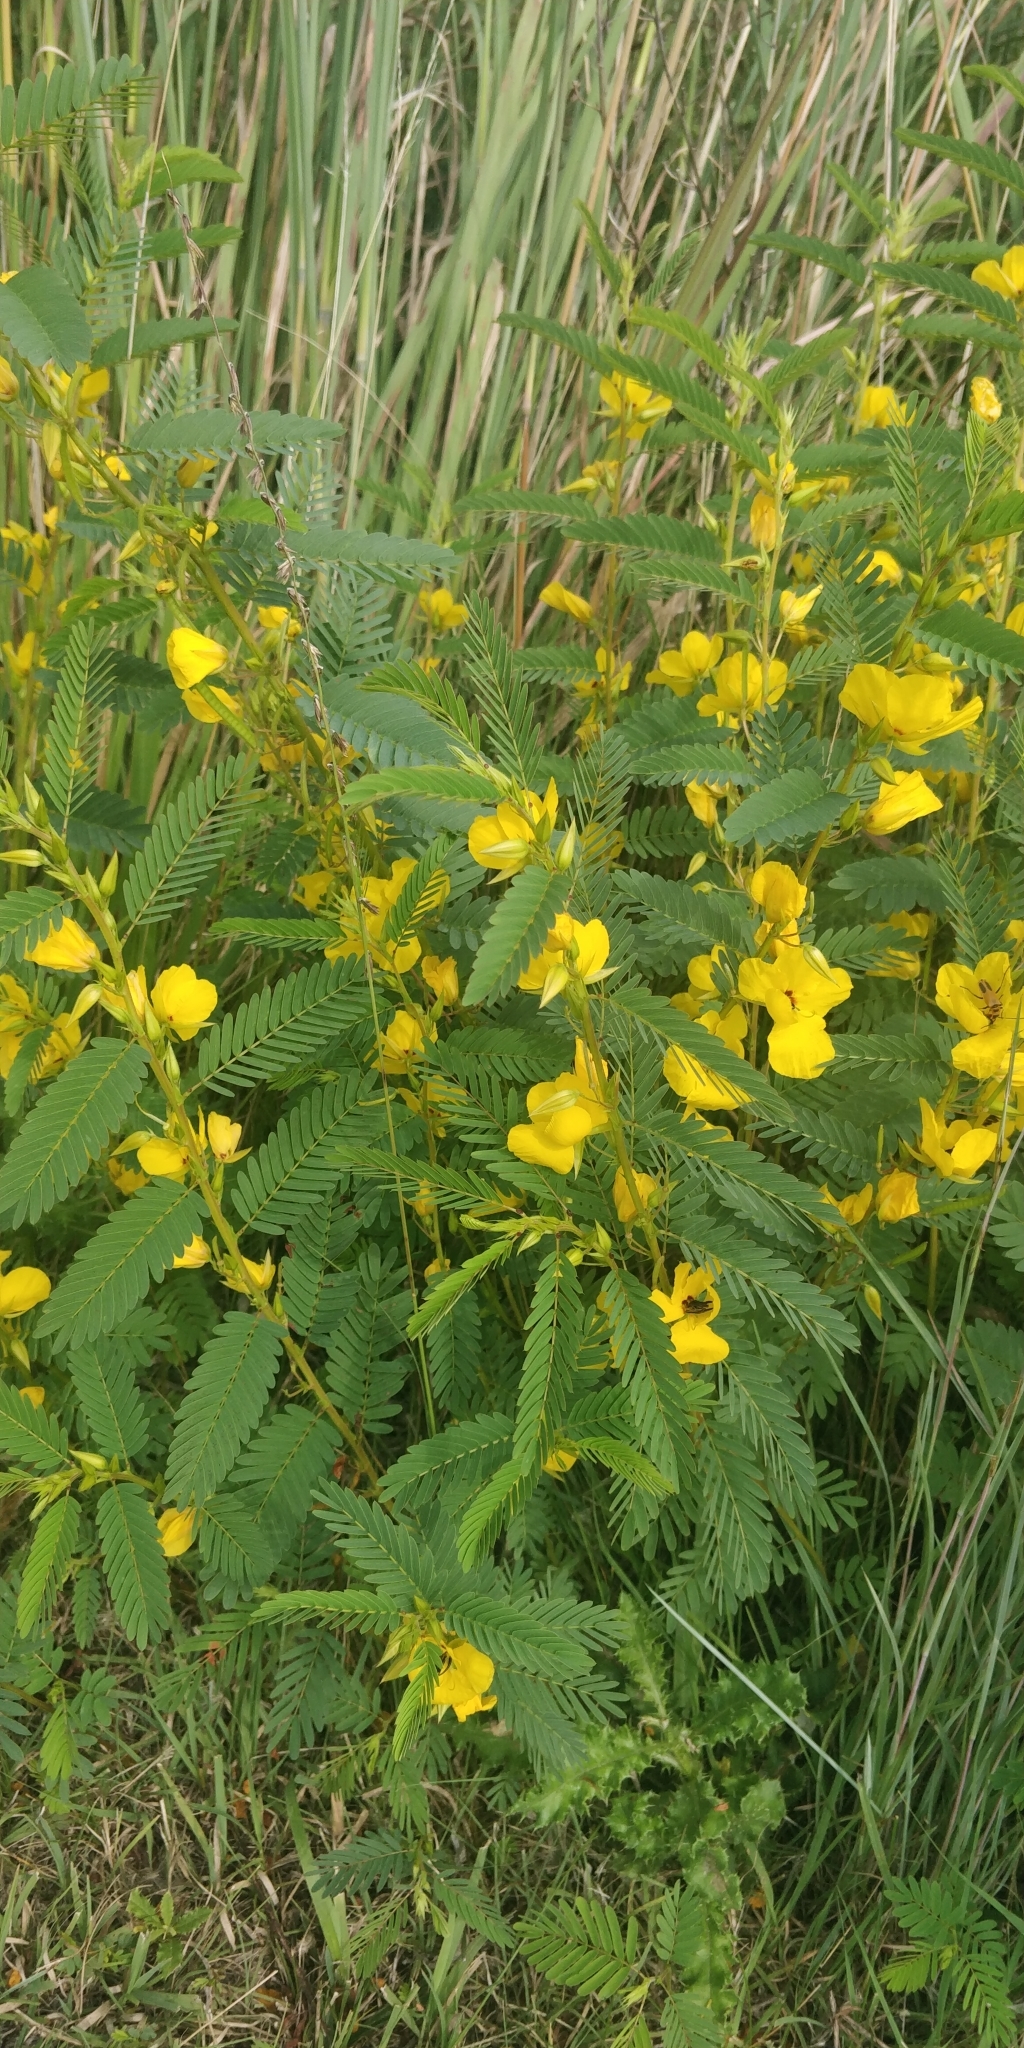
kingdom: Plantae
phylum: Tracheophyta
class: Magnoliopsida
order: Fabales
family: Fabaceae
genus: Chamaecrista
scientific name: Chamaecrista fasciculata
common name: Golden cassia
